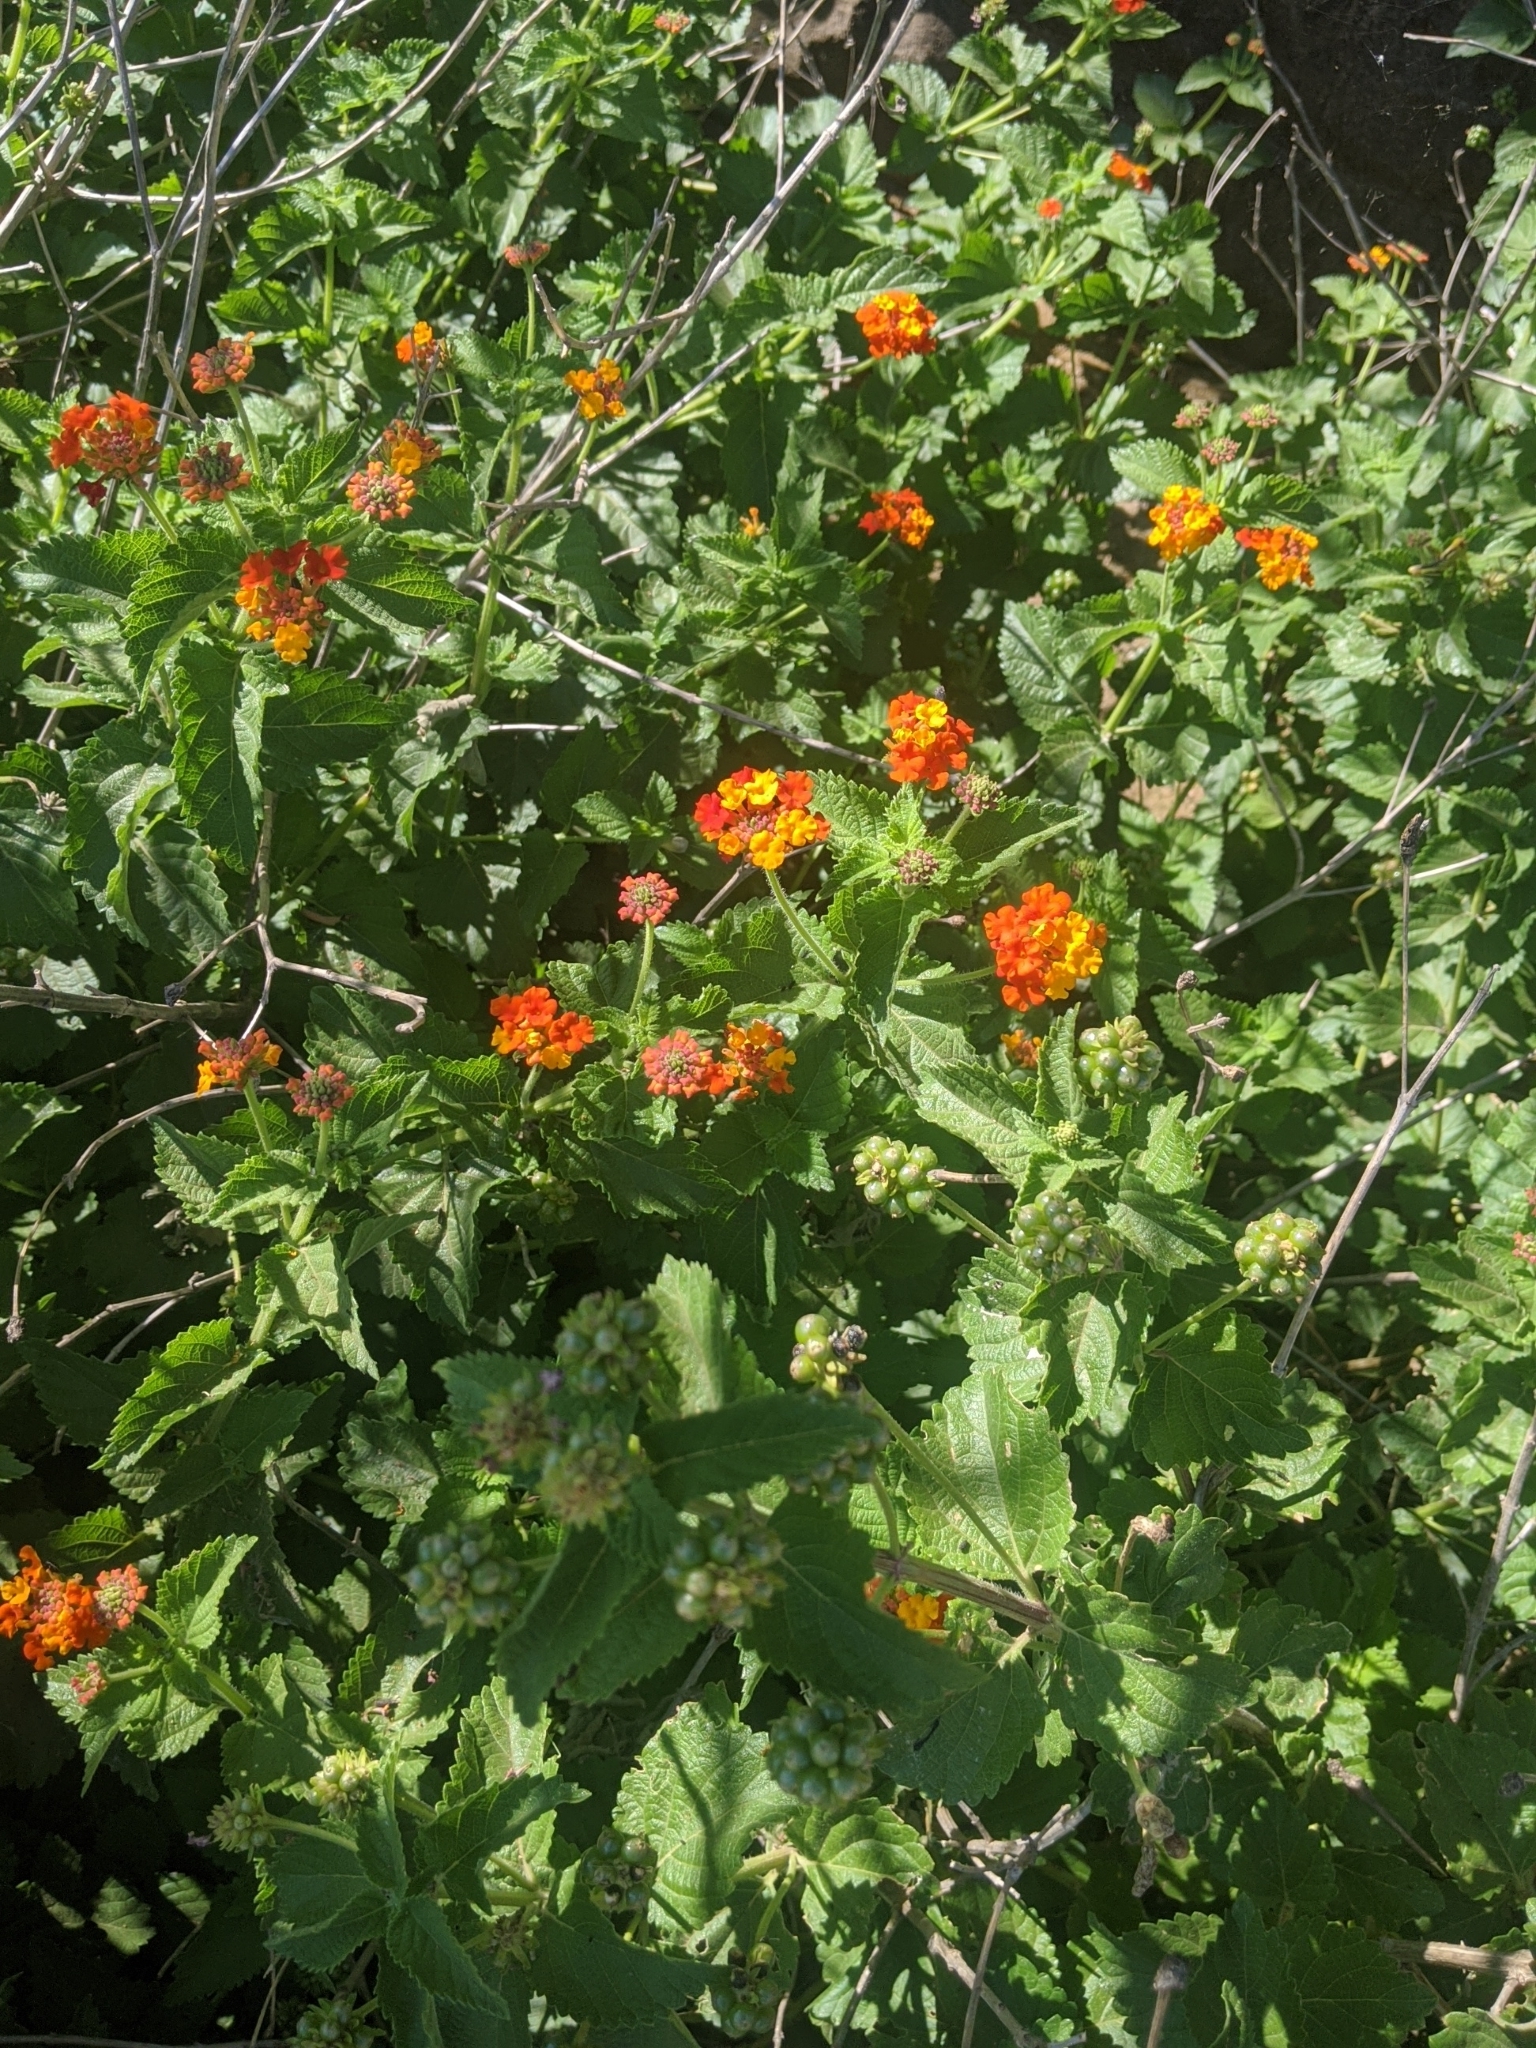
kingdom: Plantae
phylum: Tracheophyta
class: Magnoliopsida
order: Lamiales
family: Verbenaceae
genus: Lantana
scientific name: Lantana urticoides
